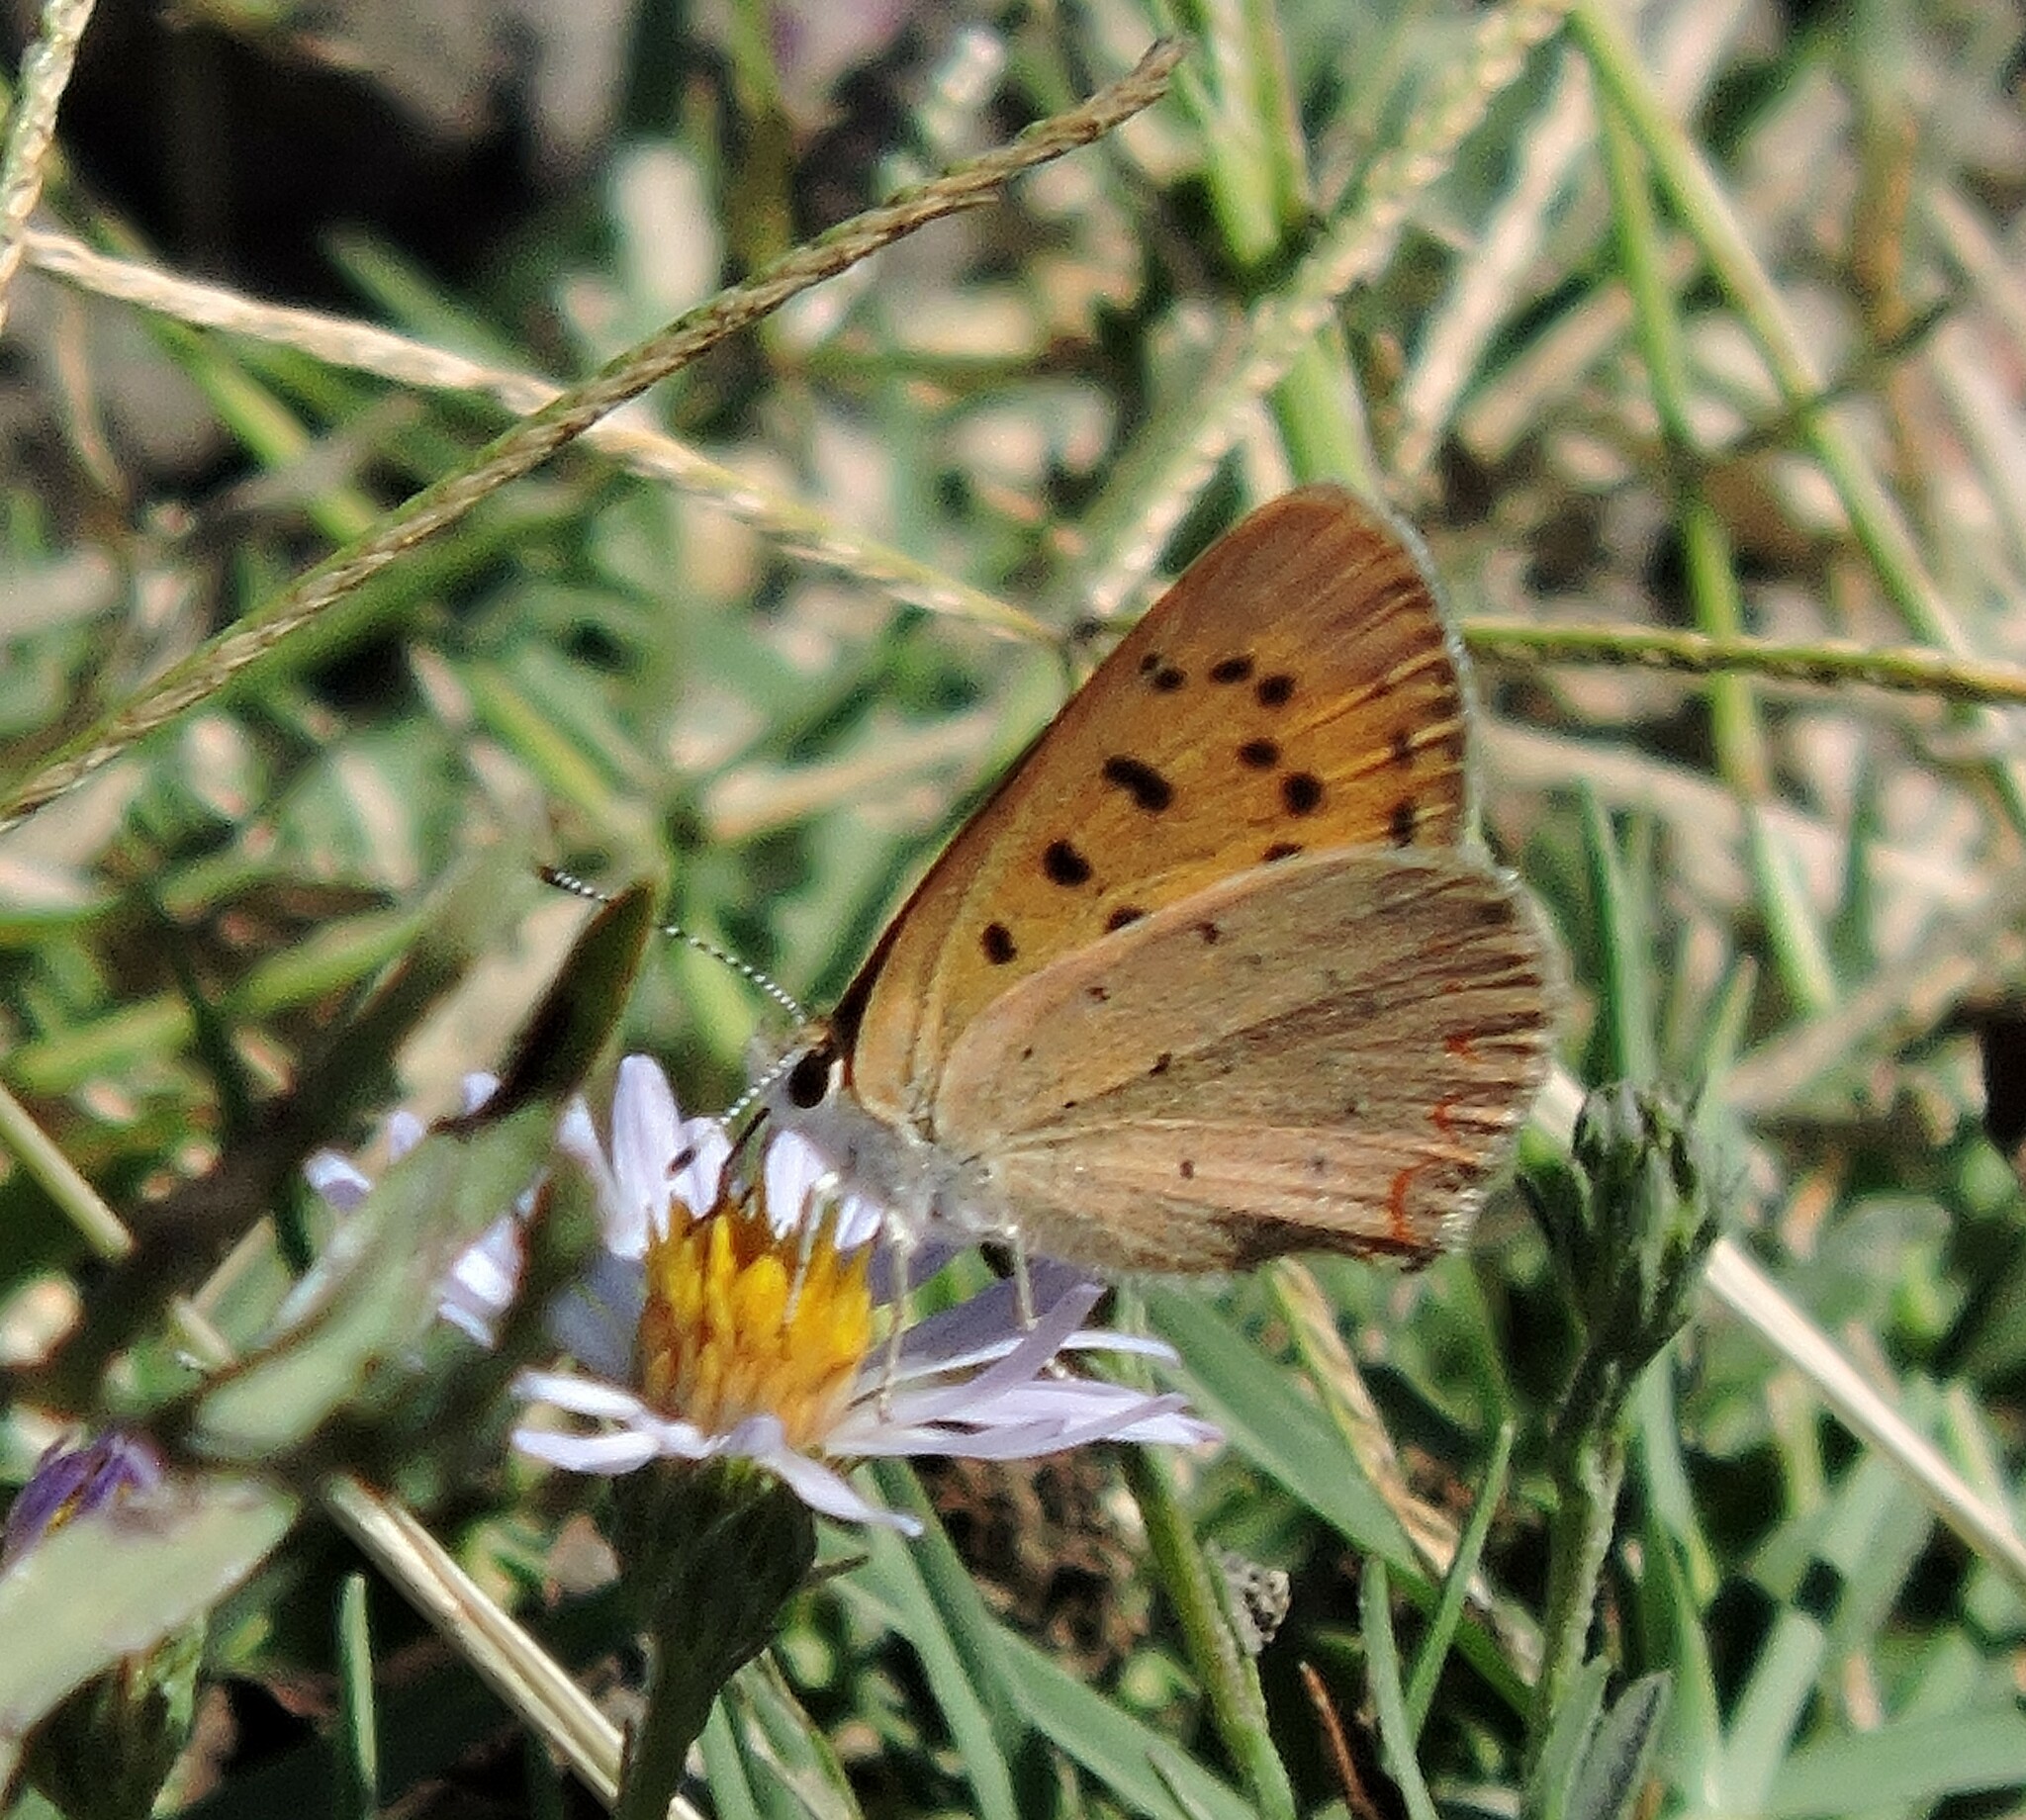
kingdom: Animalia
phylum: Arthropoda
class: Insecta
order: Lepidoptera
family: Lycaenidae
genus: Tharsalea
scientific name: Tharsalea helloides
